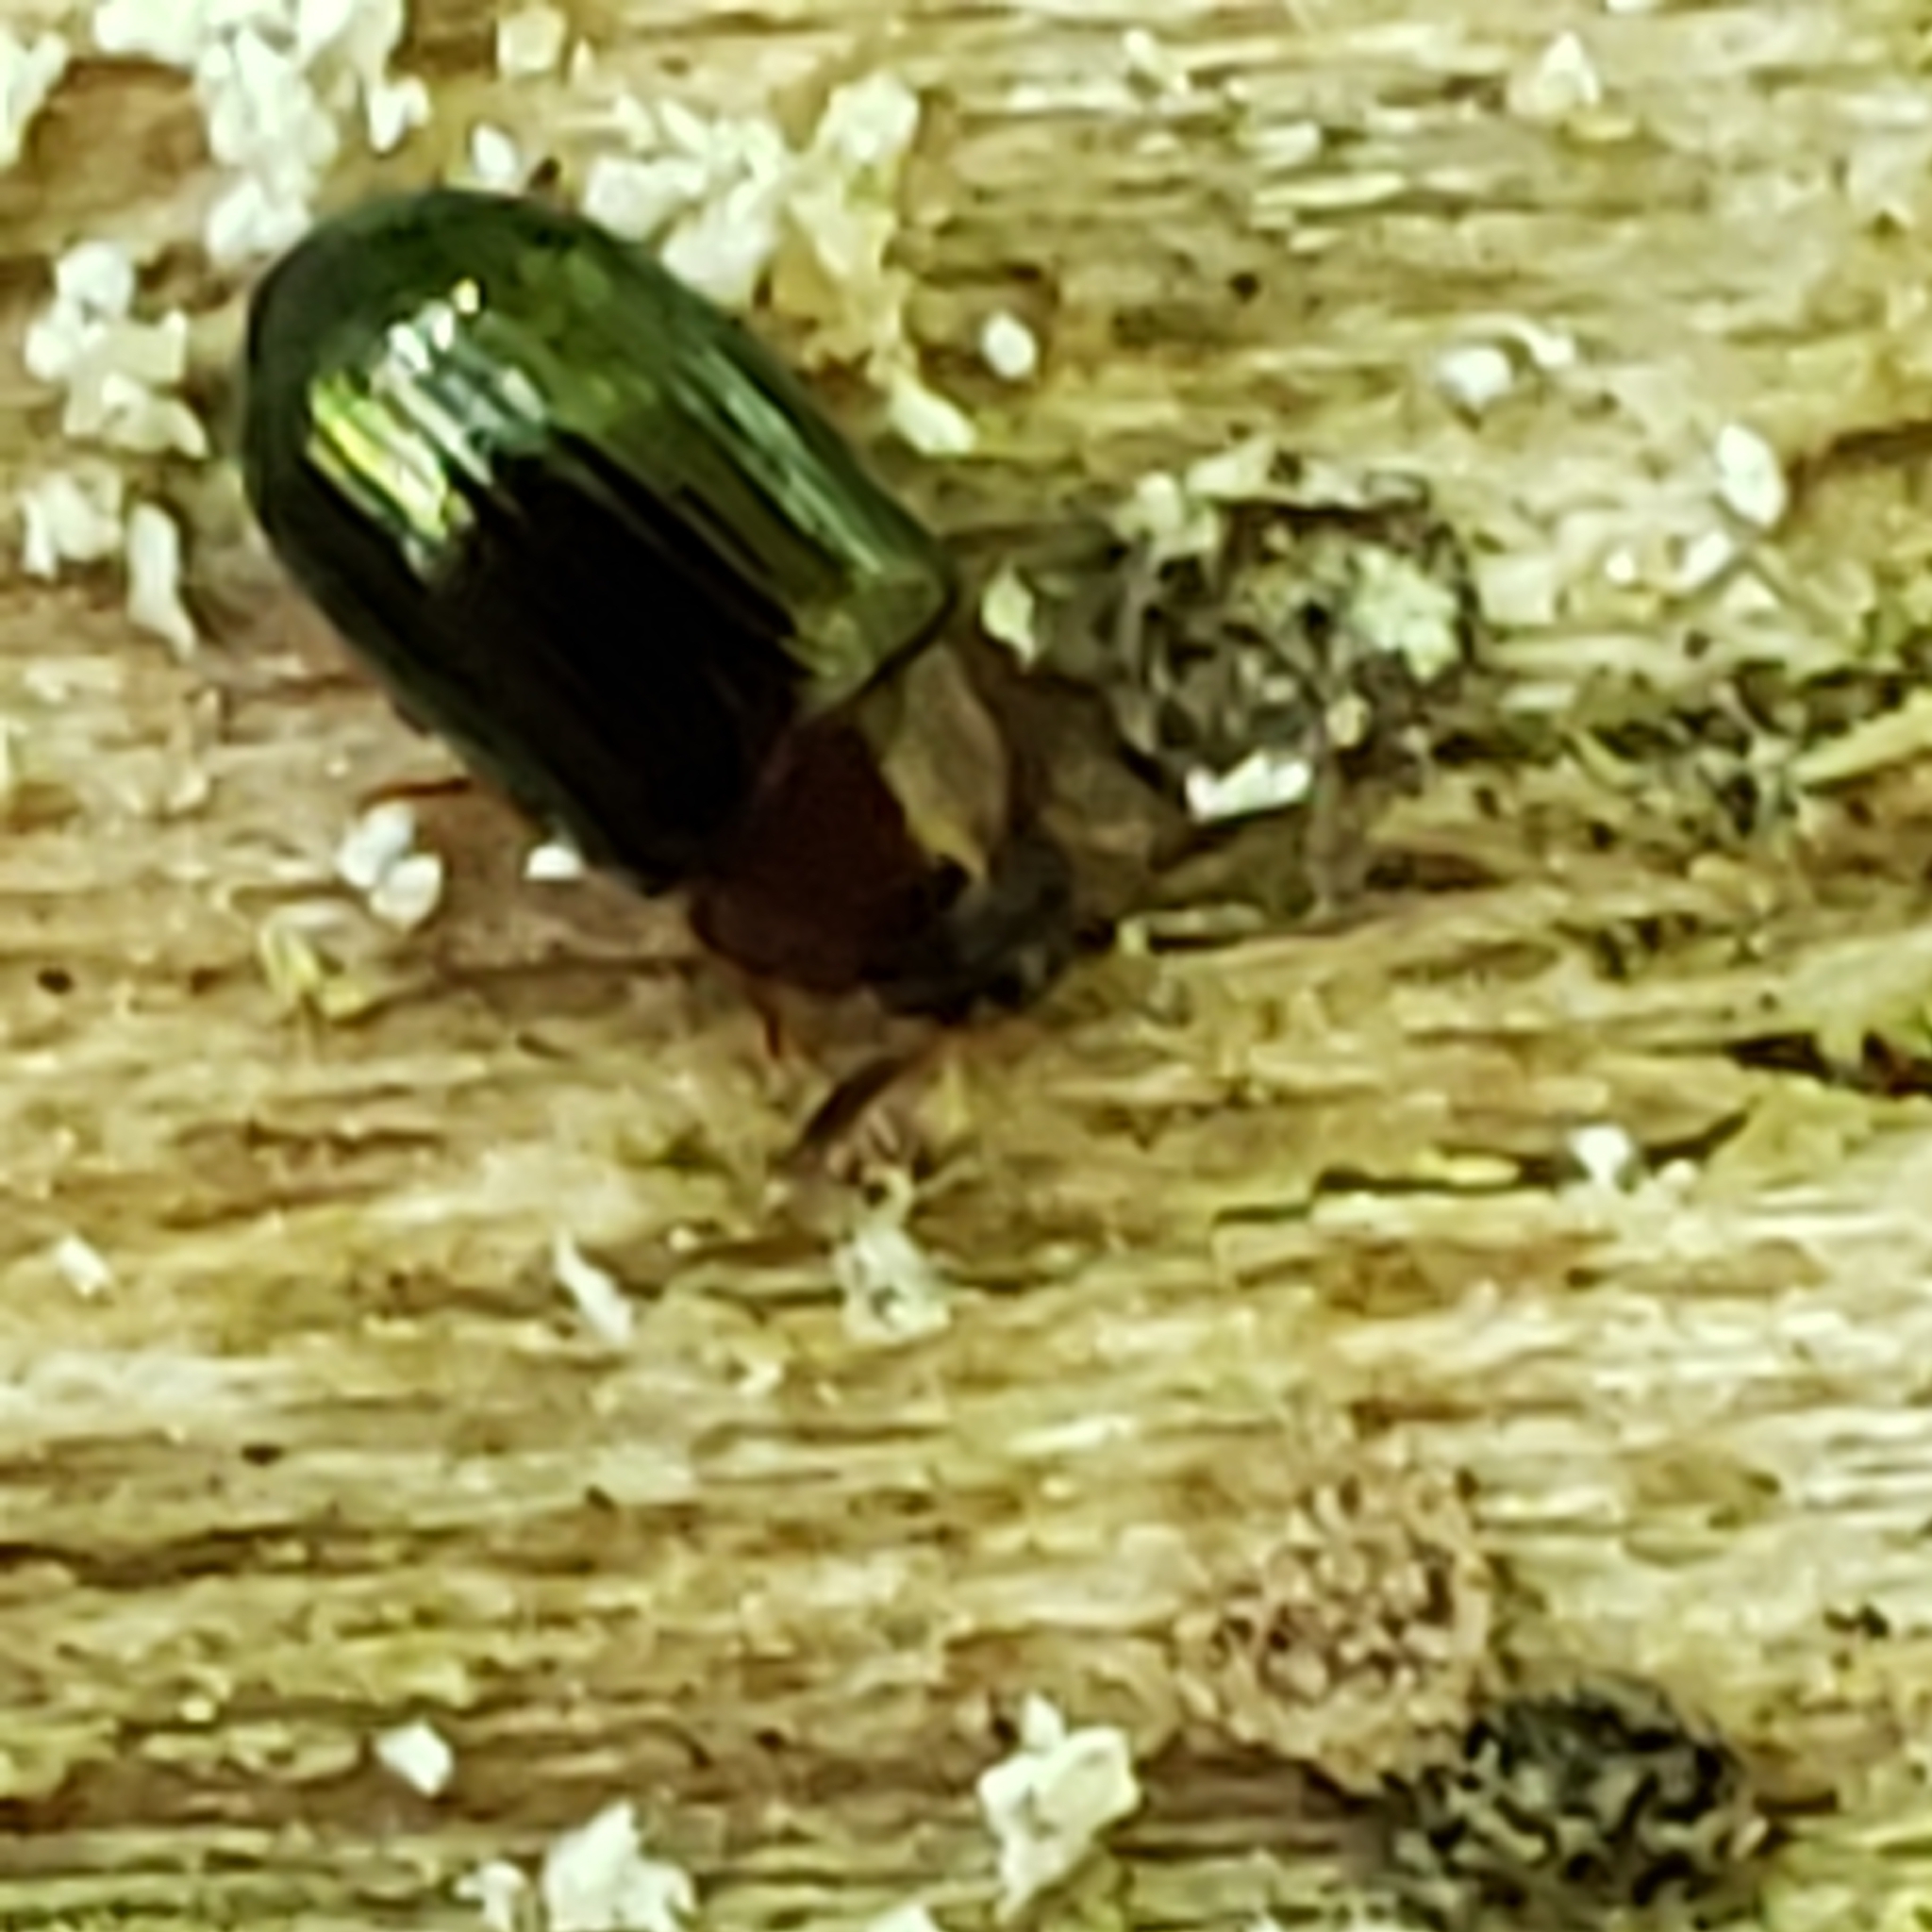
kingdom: Animalia
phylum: Arthropoda
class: Insecta
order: Coleoptera
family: Tenebrionidae
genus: Neomida
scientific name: Neomida bicornis
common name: Two-horned darkling beetle
